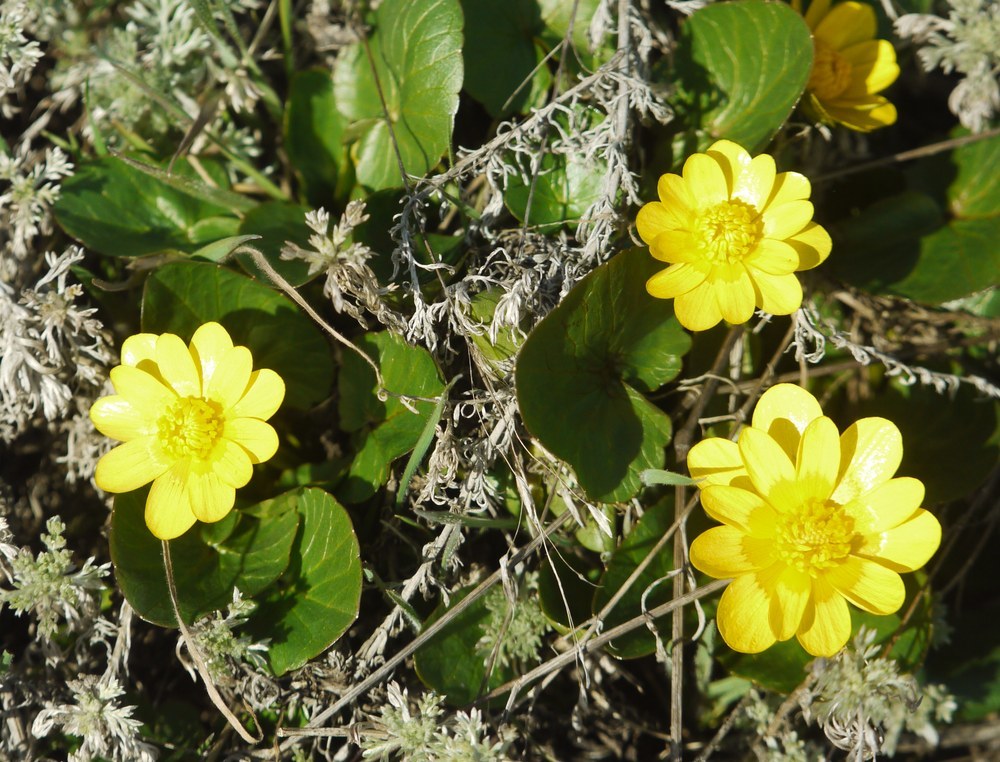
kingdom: Plantae
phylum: Tracheophyta
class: Magnoliopsida
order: Ranunculales
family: Ranunculaceae
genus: Ficaria
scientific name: Ficaria verna
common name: Lesser celandine
